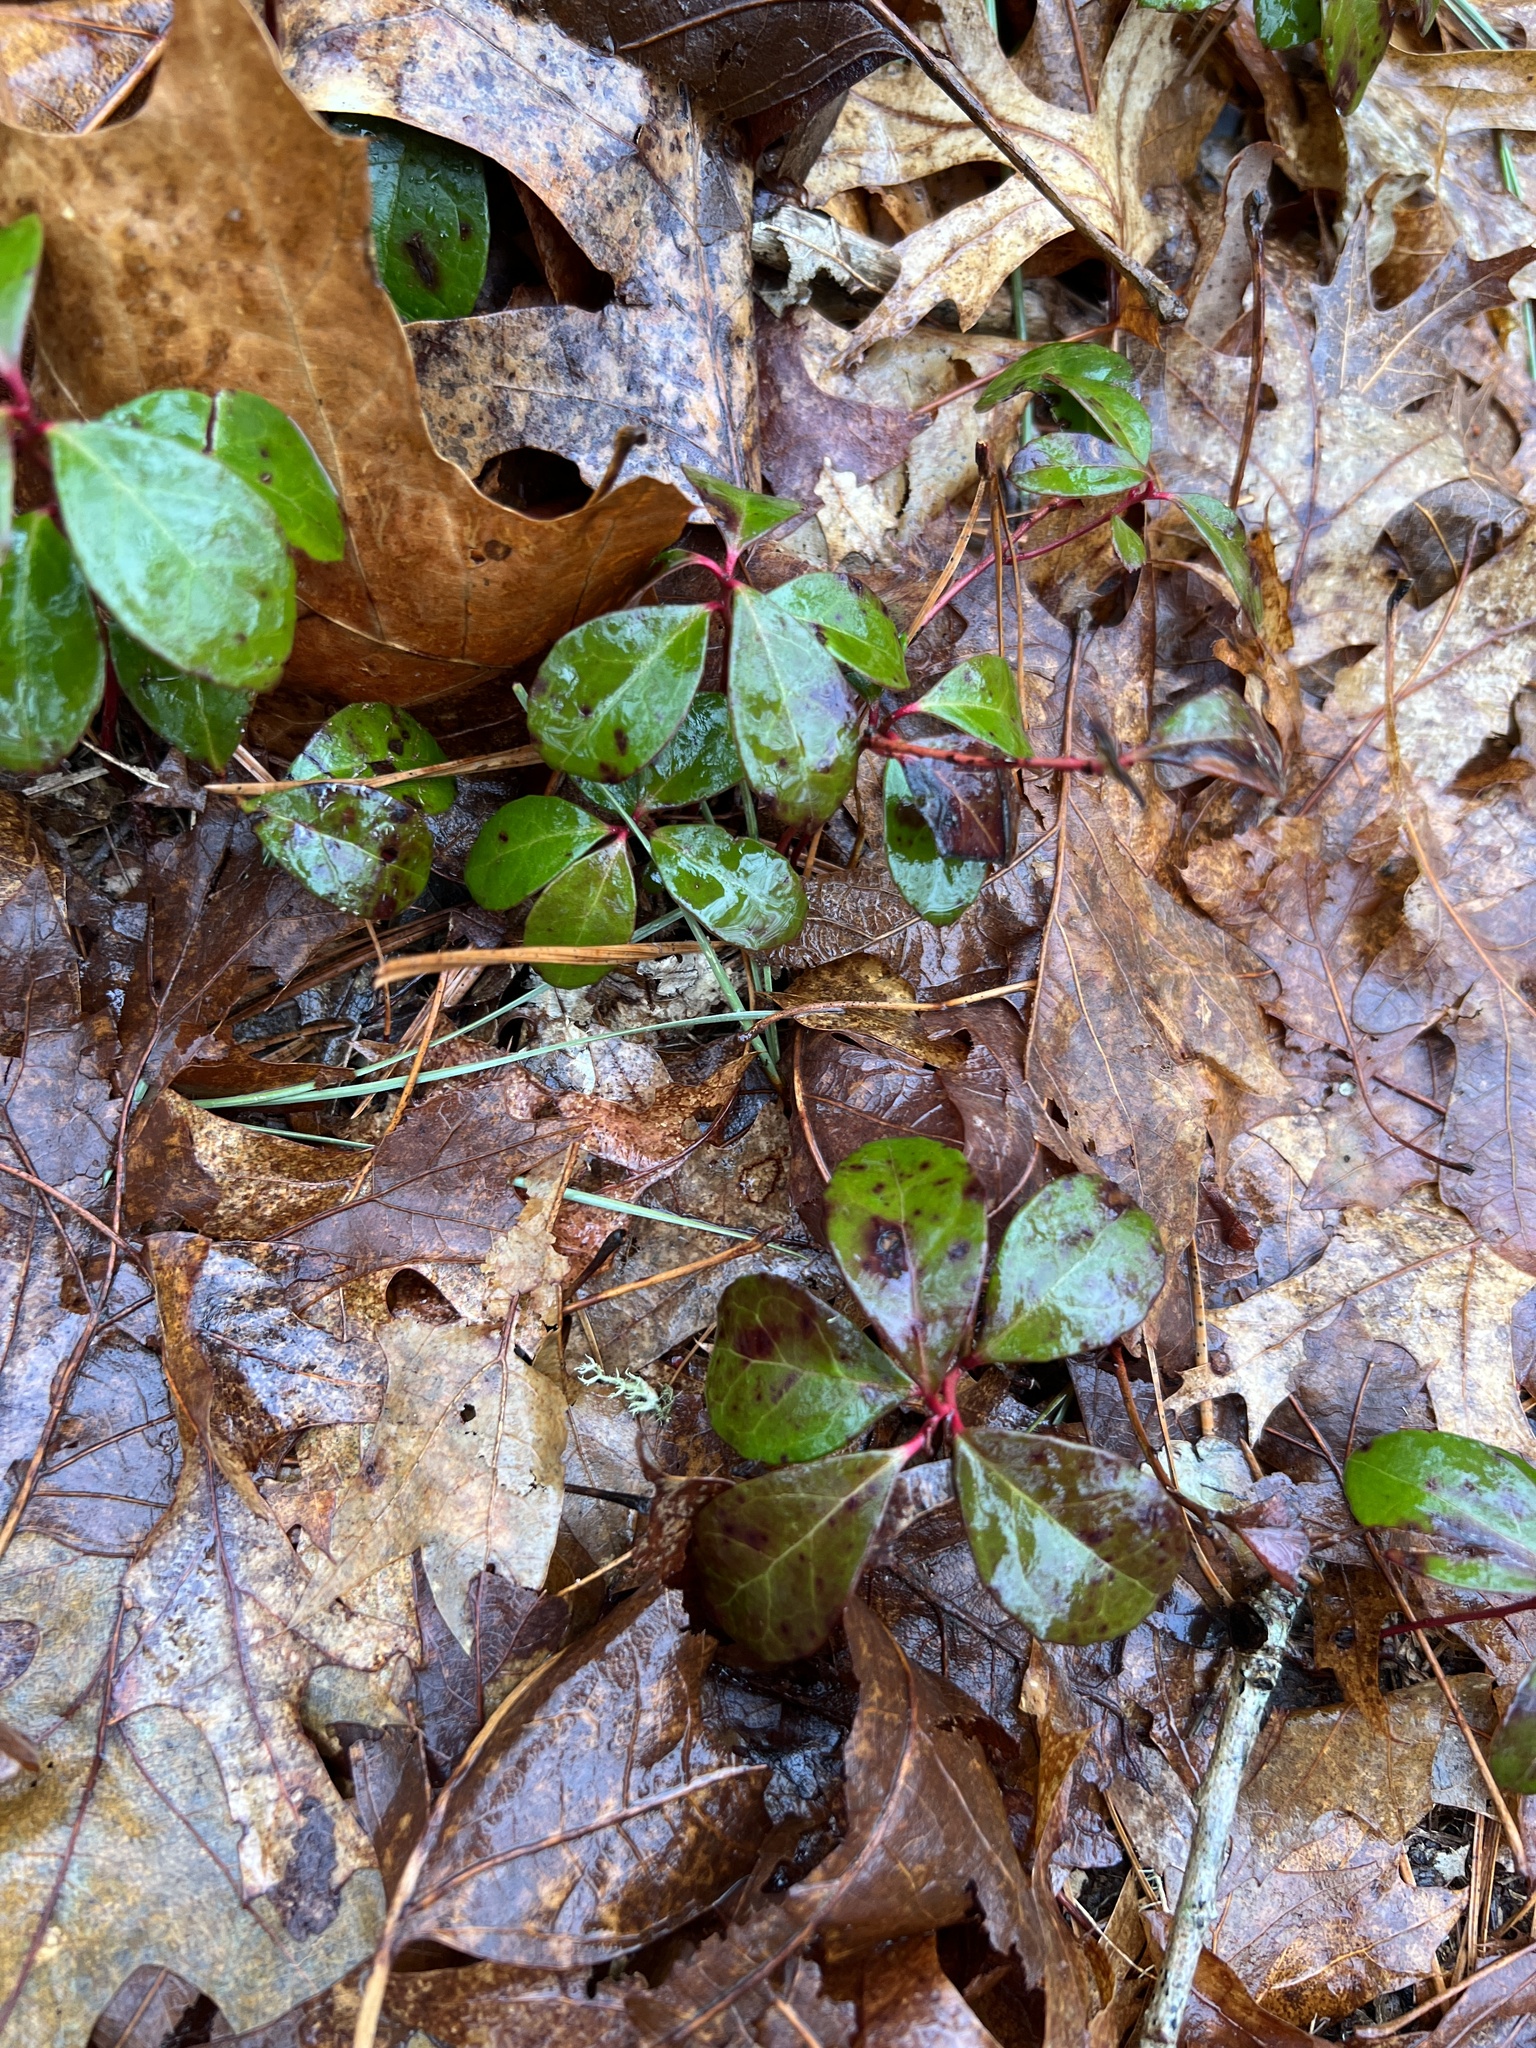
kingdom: Plantae
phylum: Tracheophyta
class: Magnoliopsida
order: Ericales
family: Ericaceae
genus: Gaultheria
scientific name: Gaultheria procumbens
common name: Checkerberry
